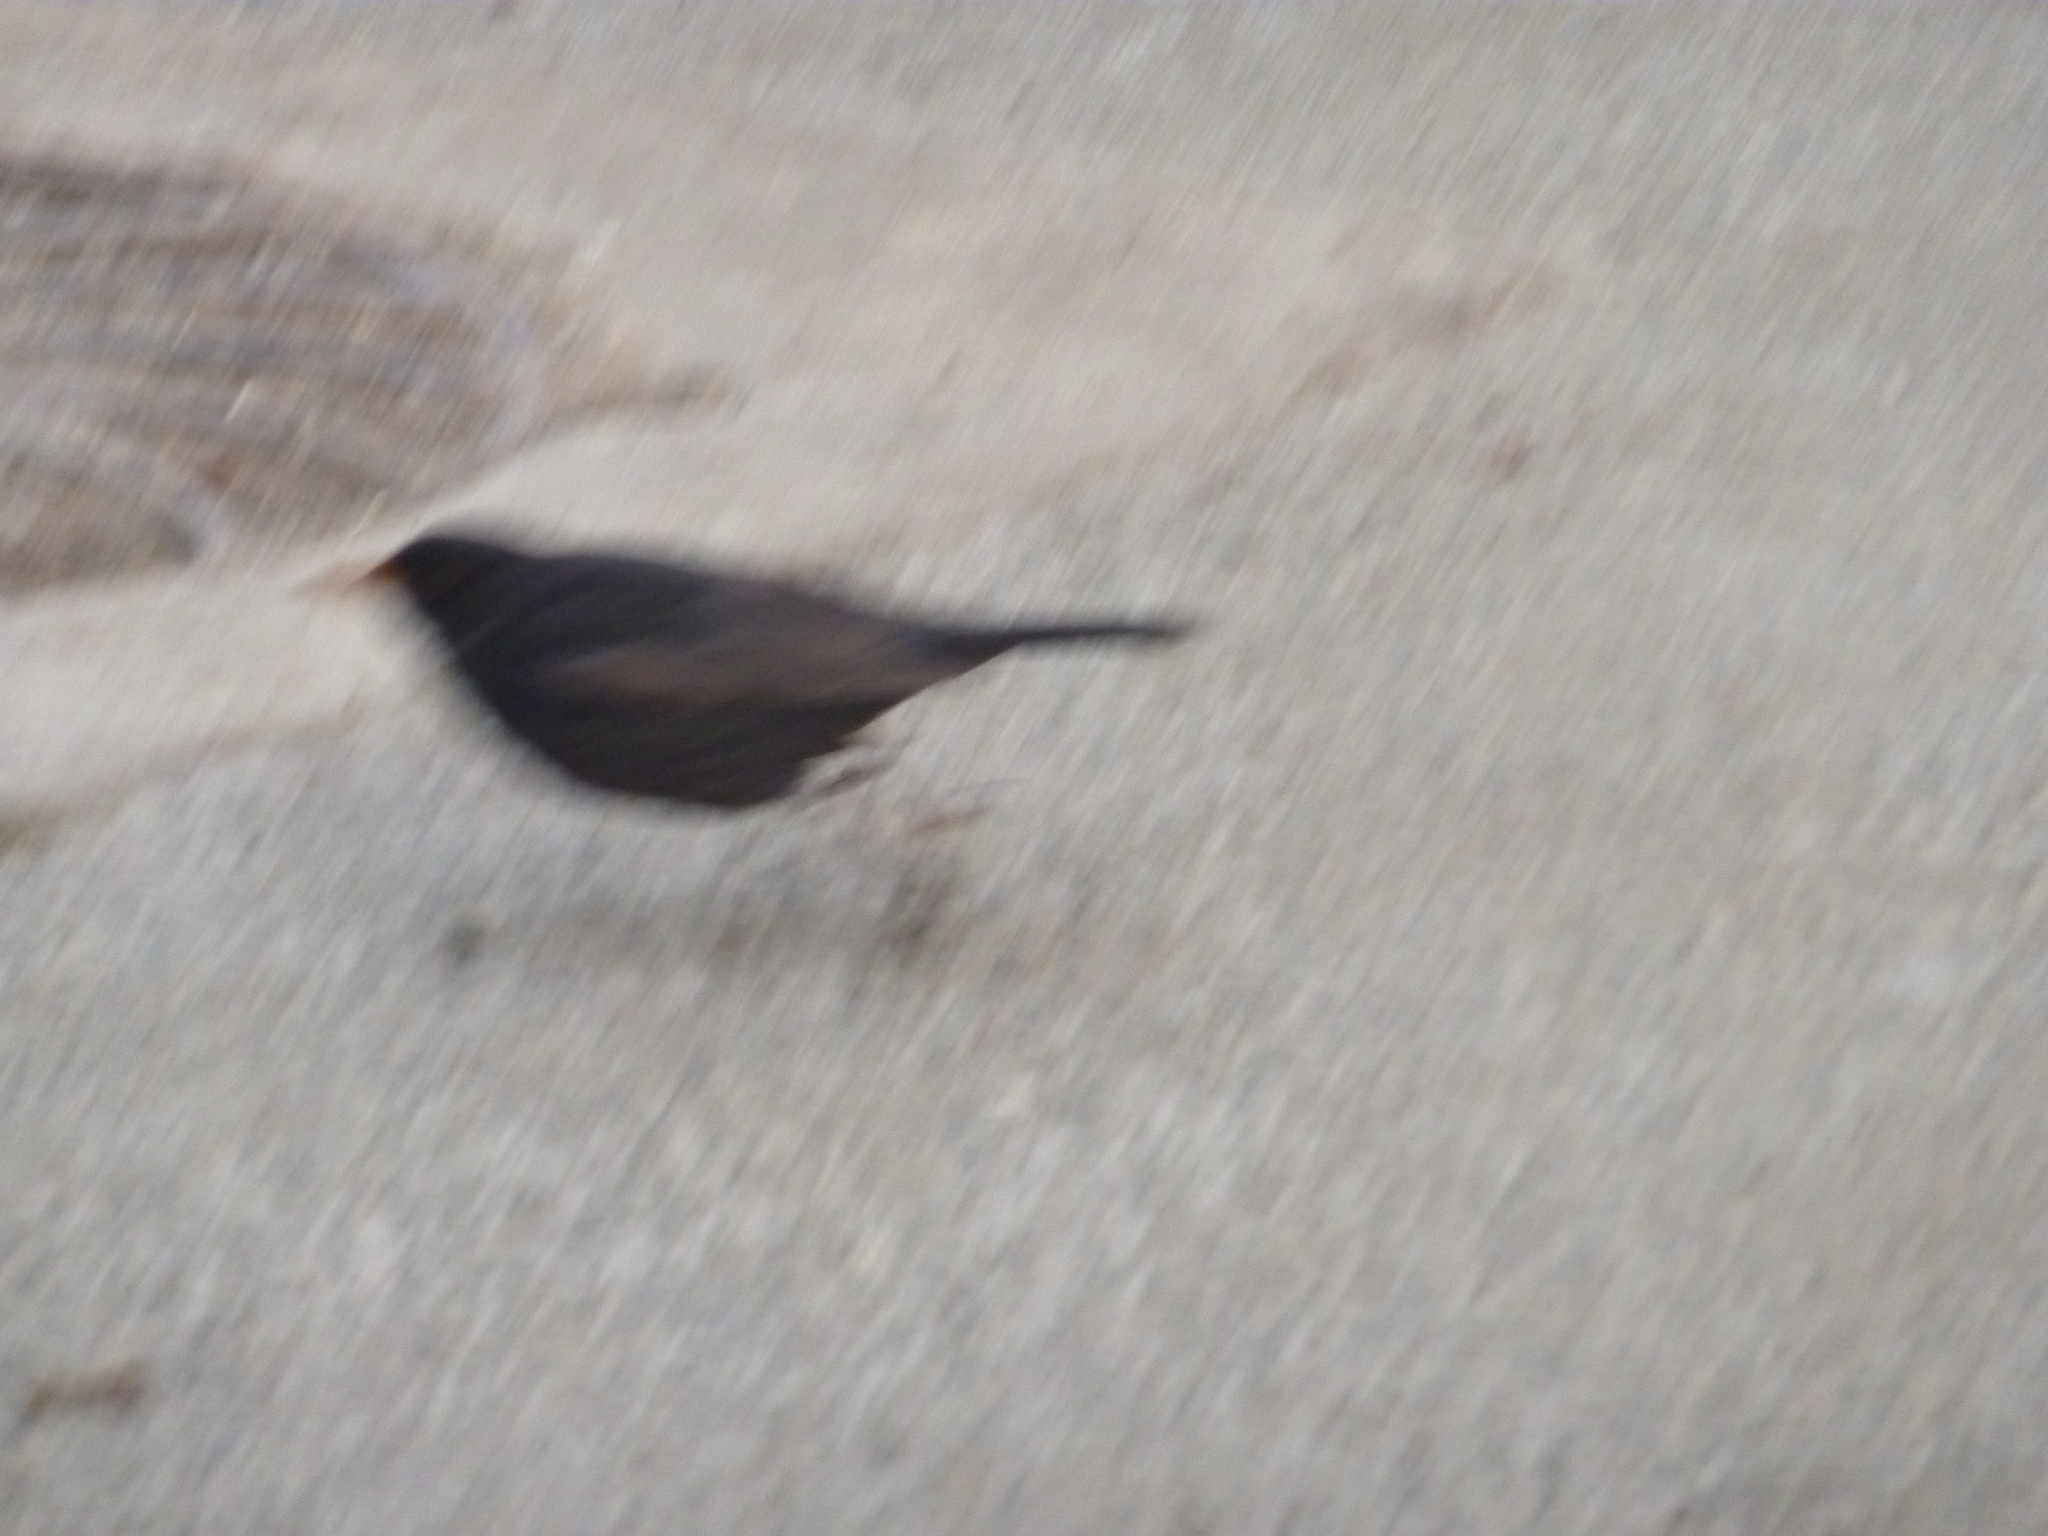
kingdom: Animalia
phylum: Chordata
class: Aves
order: Passeriformes
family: Turdidae
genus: Turdus
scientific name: Turdus merula
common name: Common blackbird
